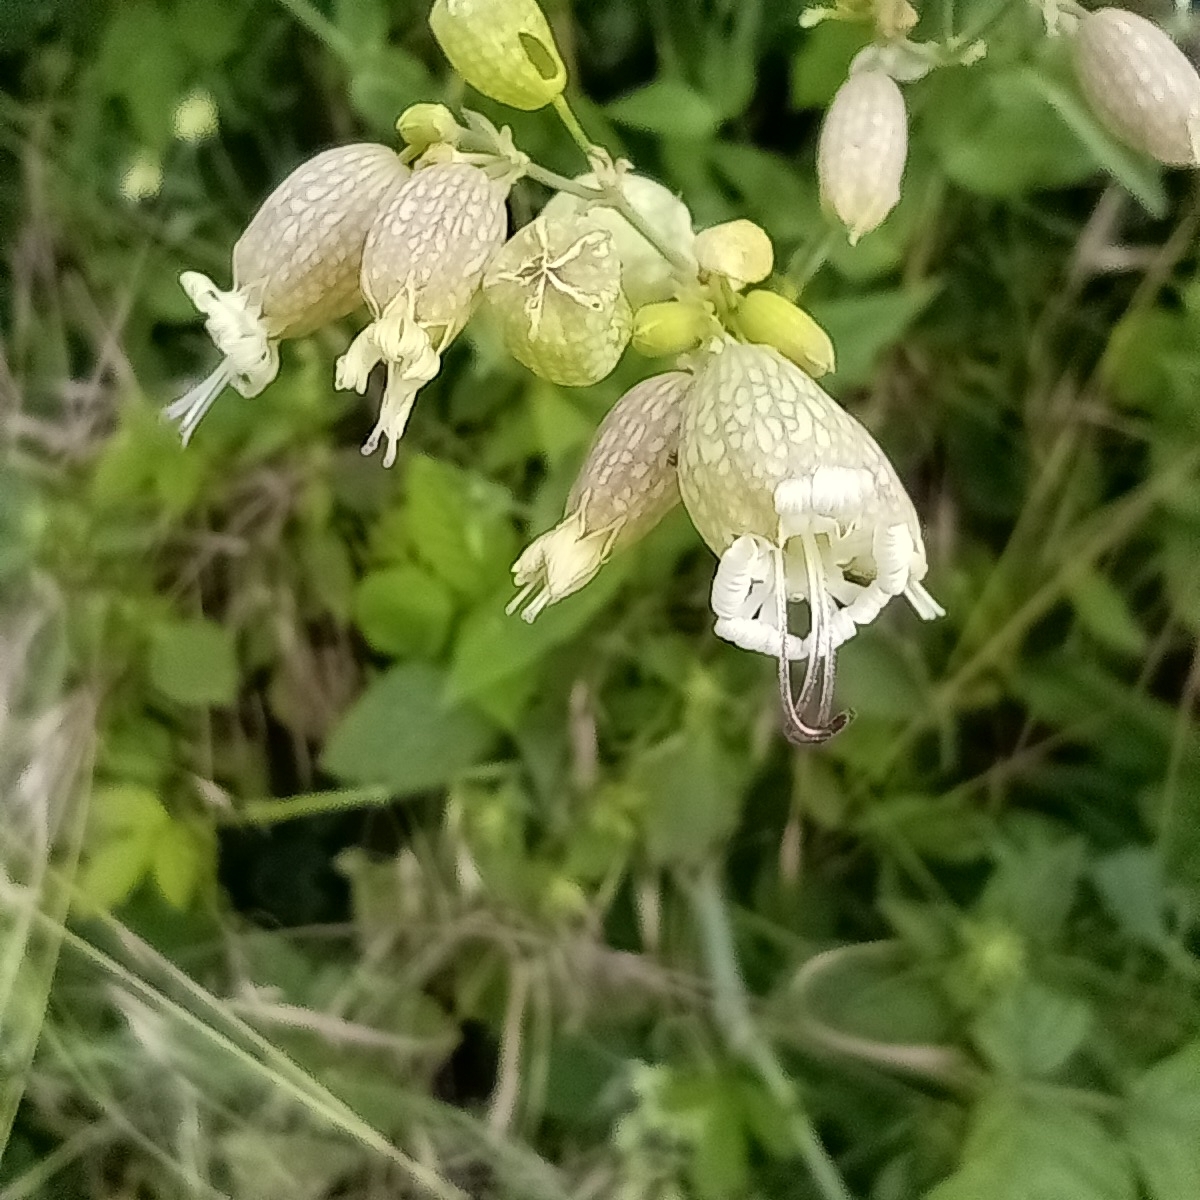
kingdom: Plantae
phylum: Tracheophyta
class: Magnoliopsida
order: Caryophyllales
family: Caryophyllaceae
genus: Silene
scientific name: Silene vulgaris
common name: Bladder campion
